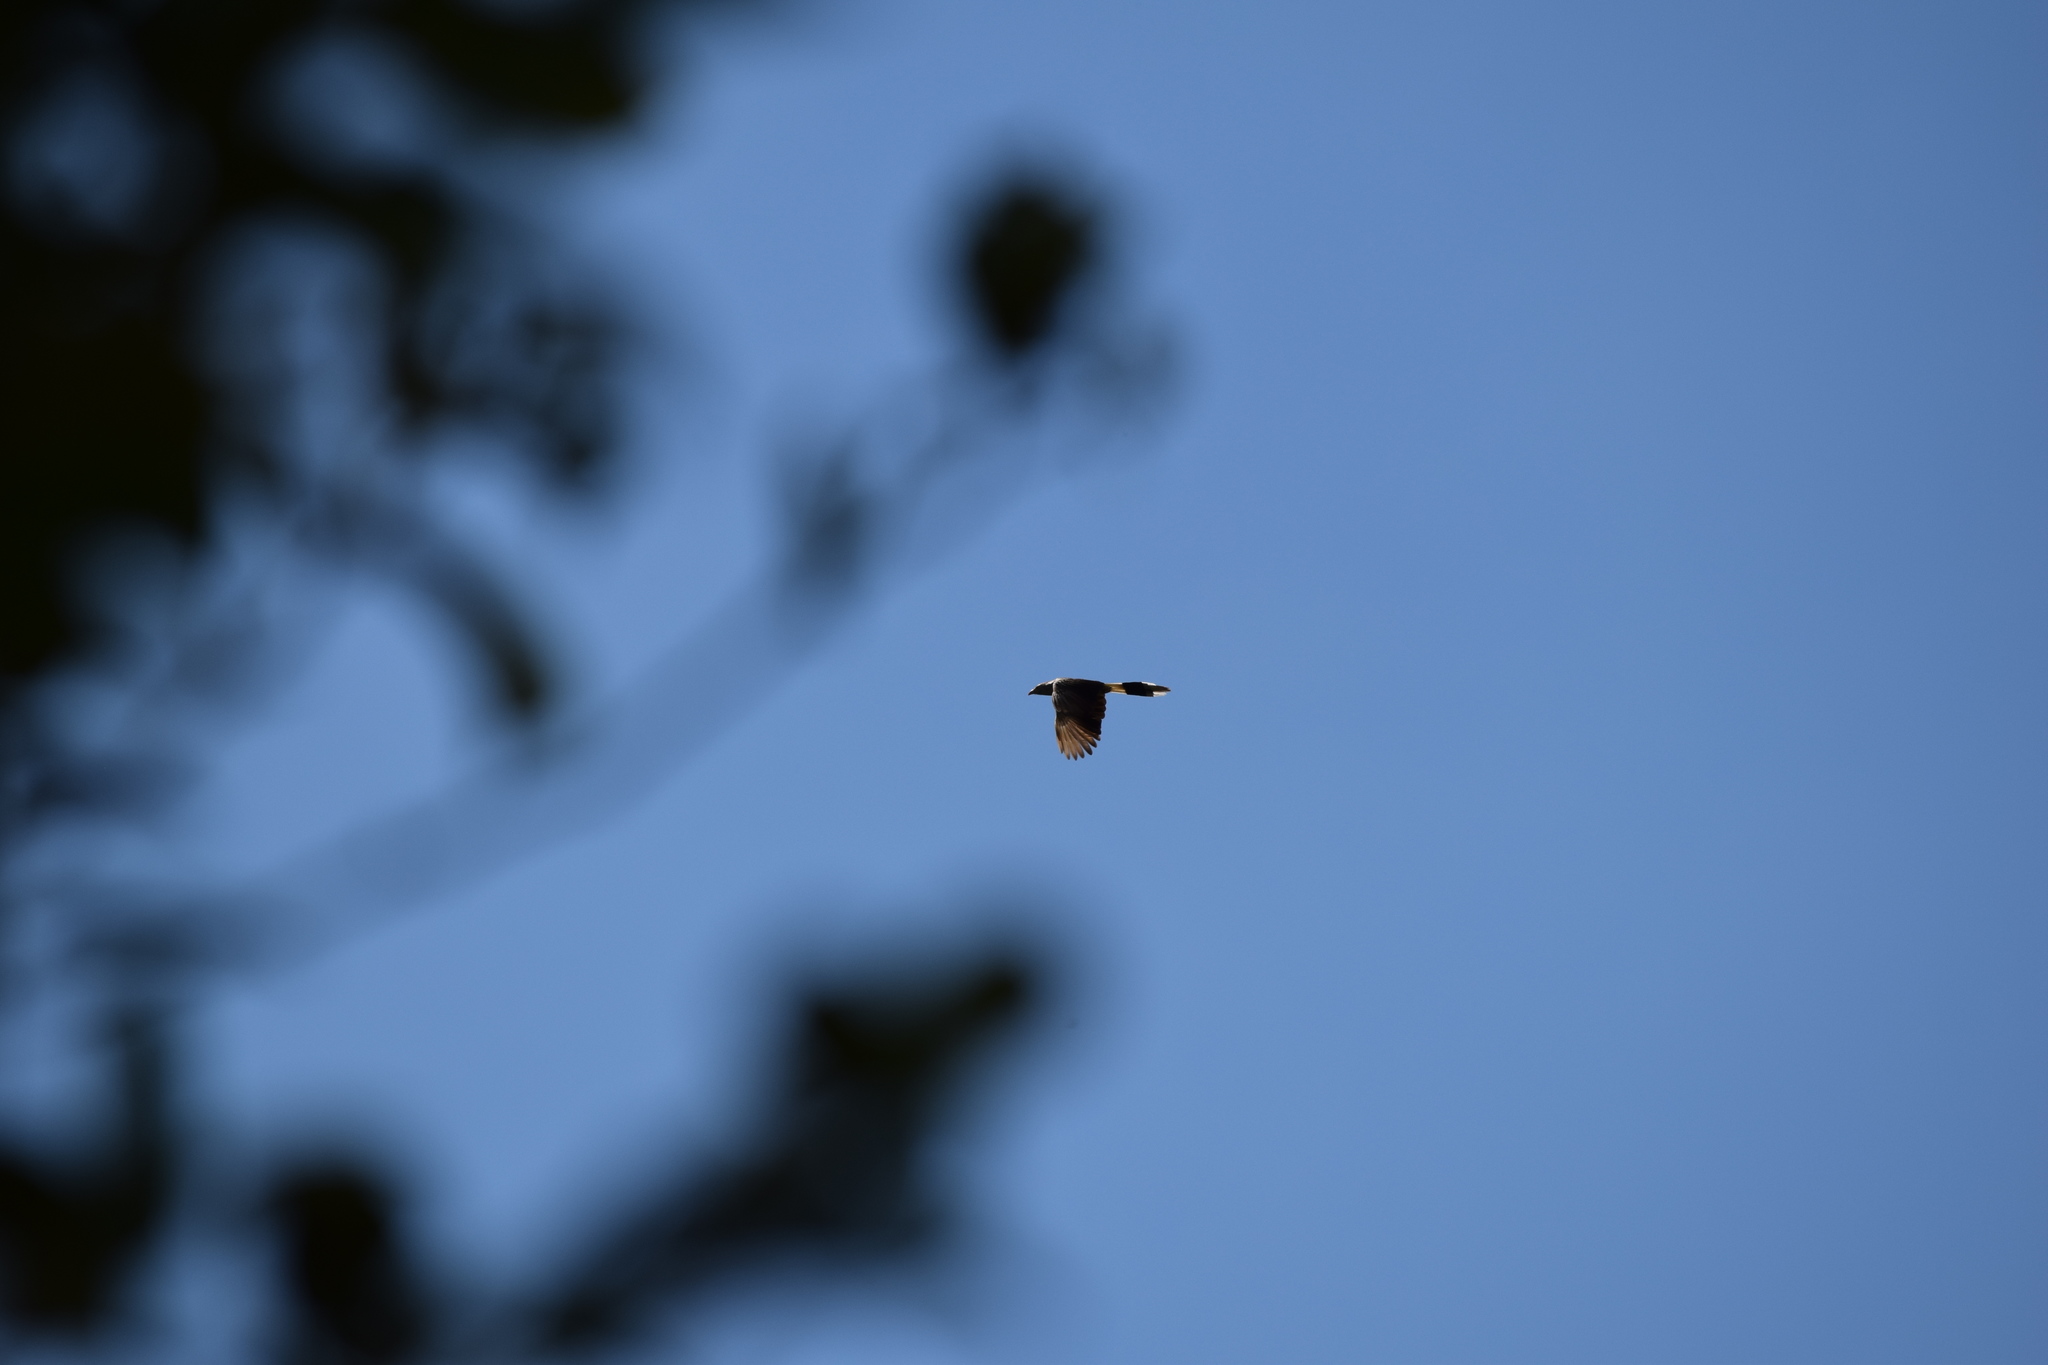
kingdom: Animalia
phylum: Chordata
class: Aves
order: Cuculiformes
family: Cuculidae
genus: Guira
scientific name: Guira guira
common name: Guira cuckoo
